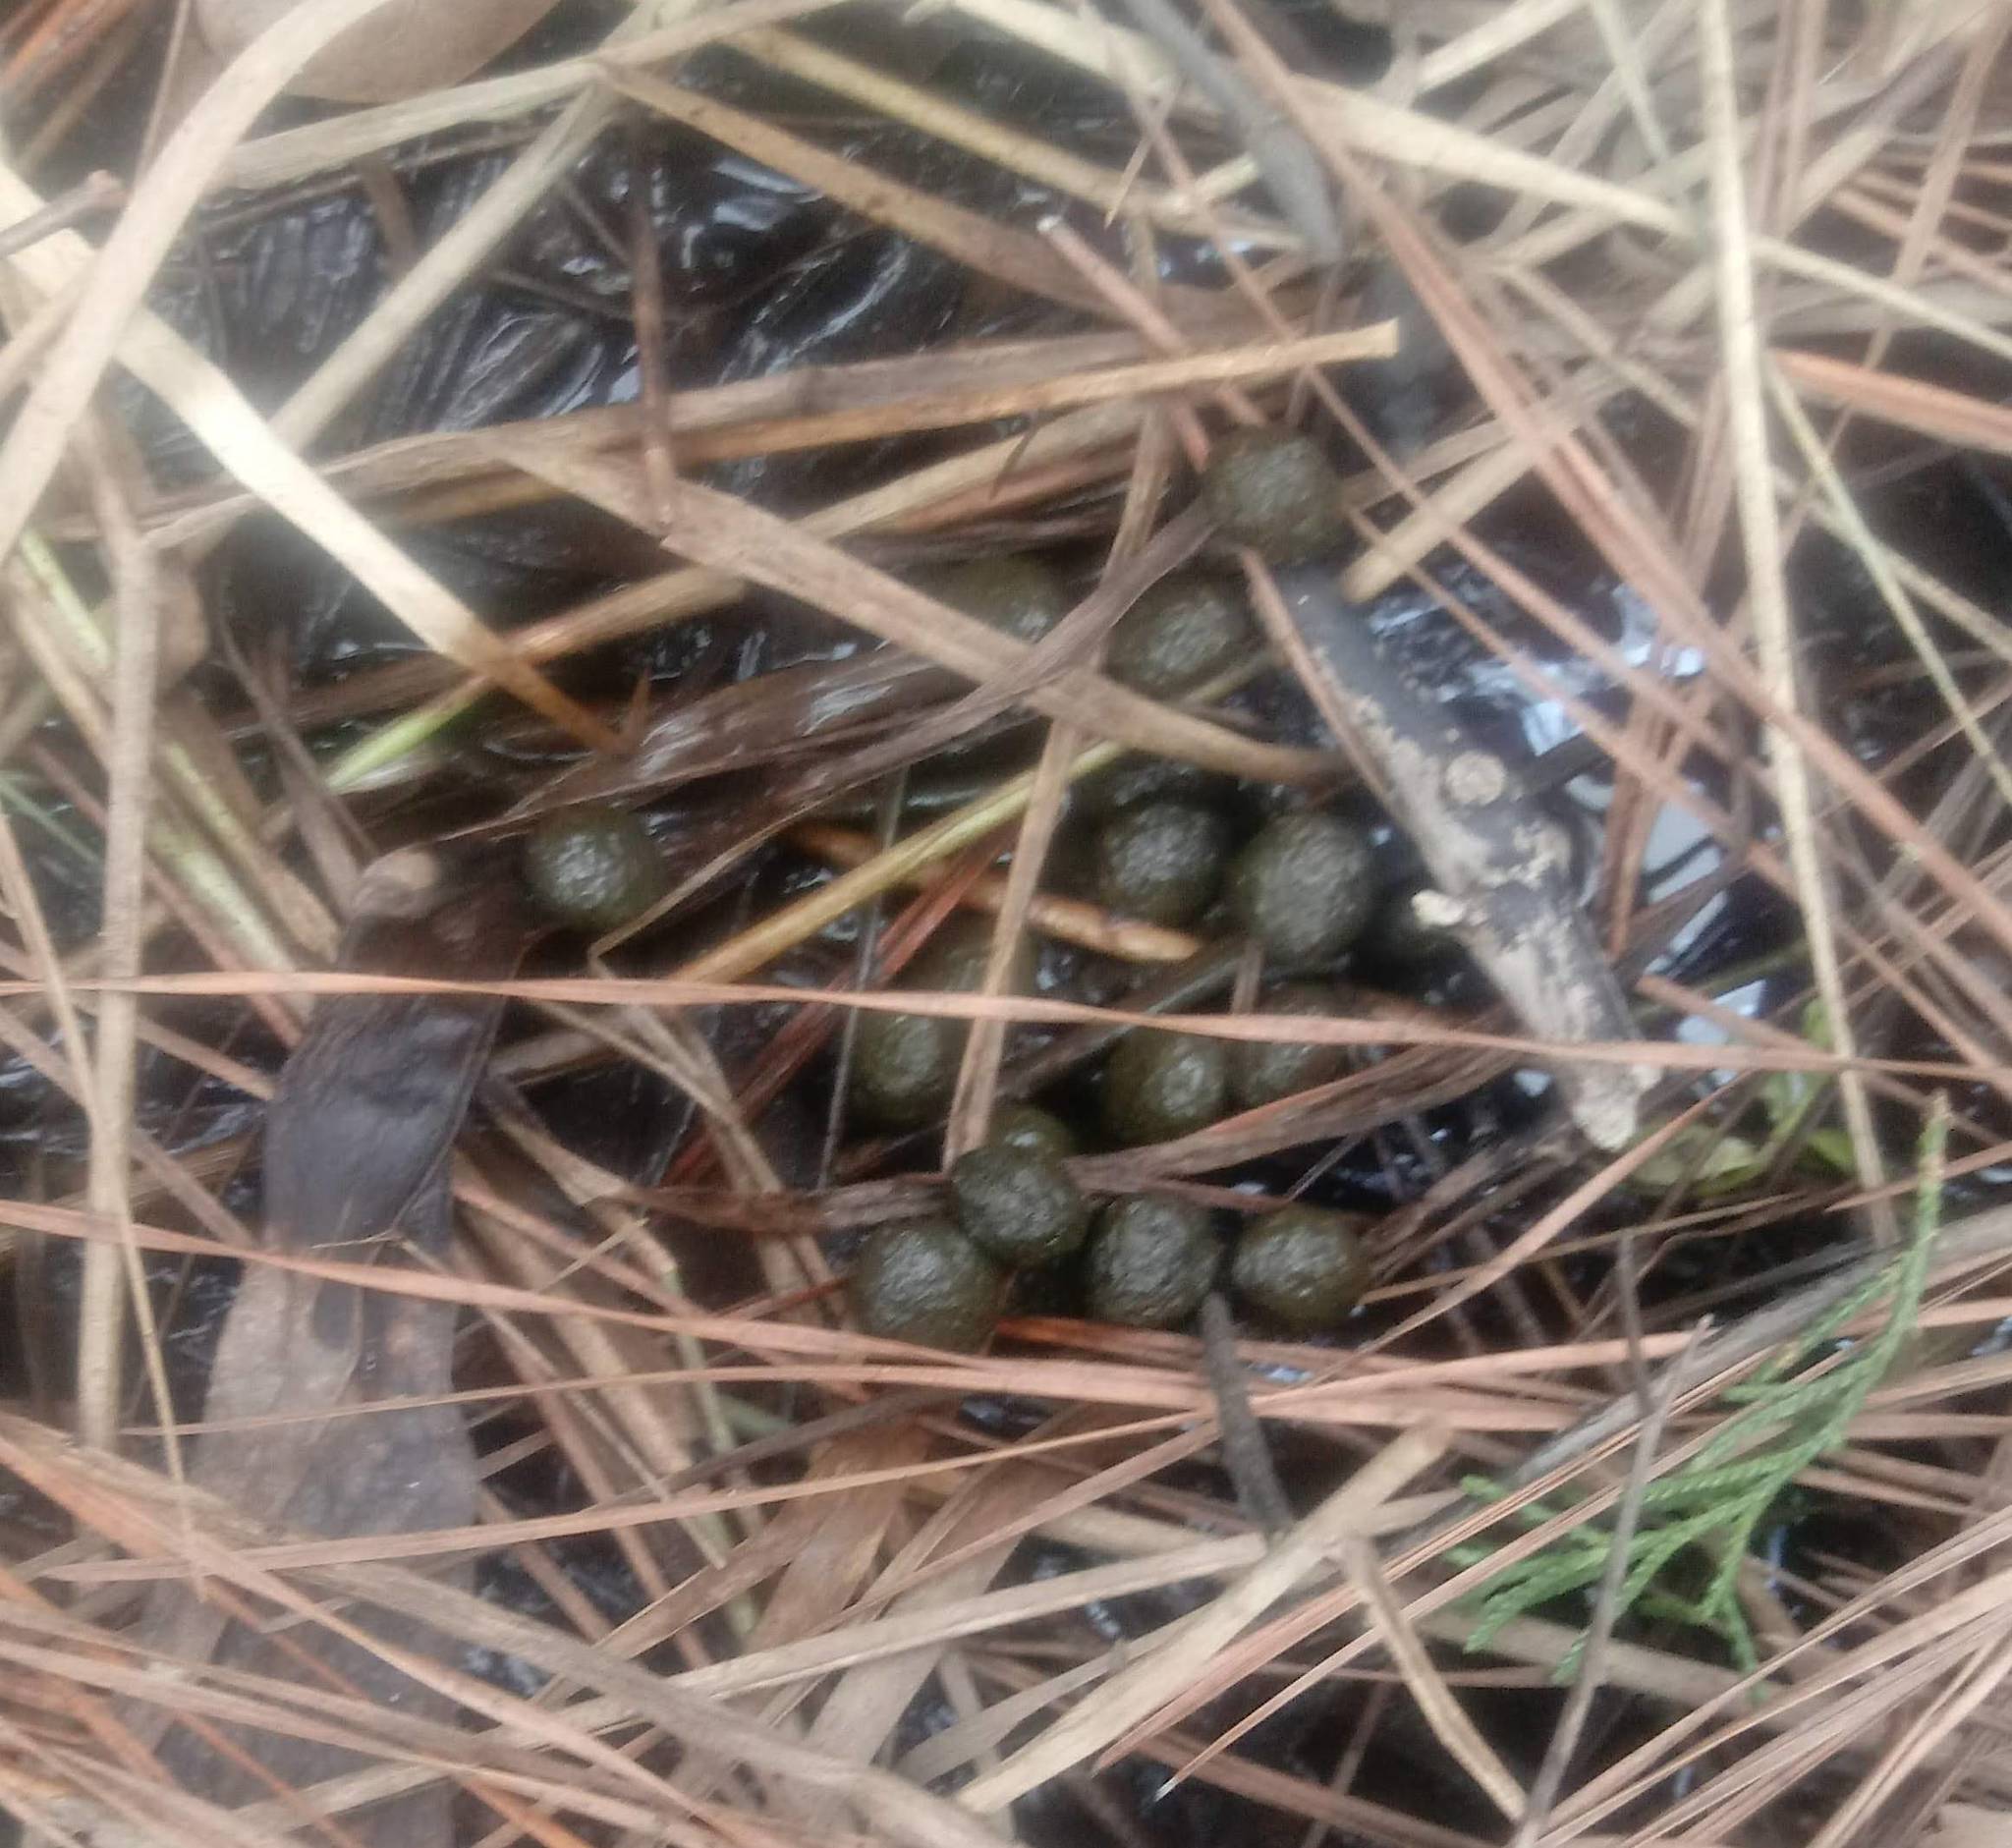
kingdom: Animalia
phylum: Chordata
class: Mammalia
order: Lagomorpha
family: Leporidae
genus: Sylvilagus
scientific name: Sylvilagus aquaticus
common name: Swamp rabbit
